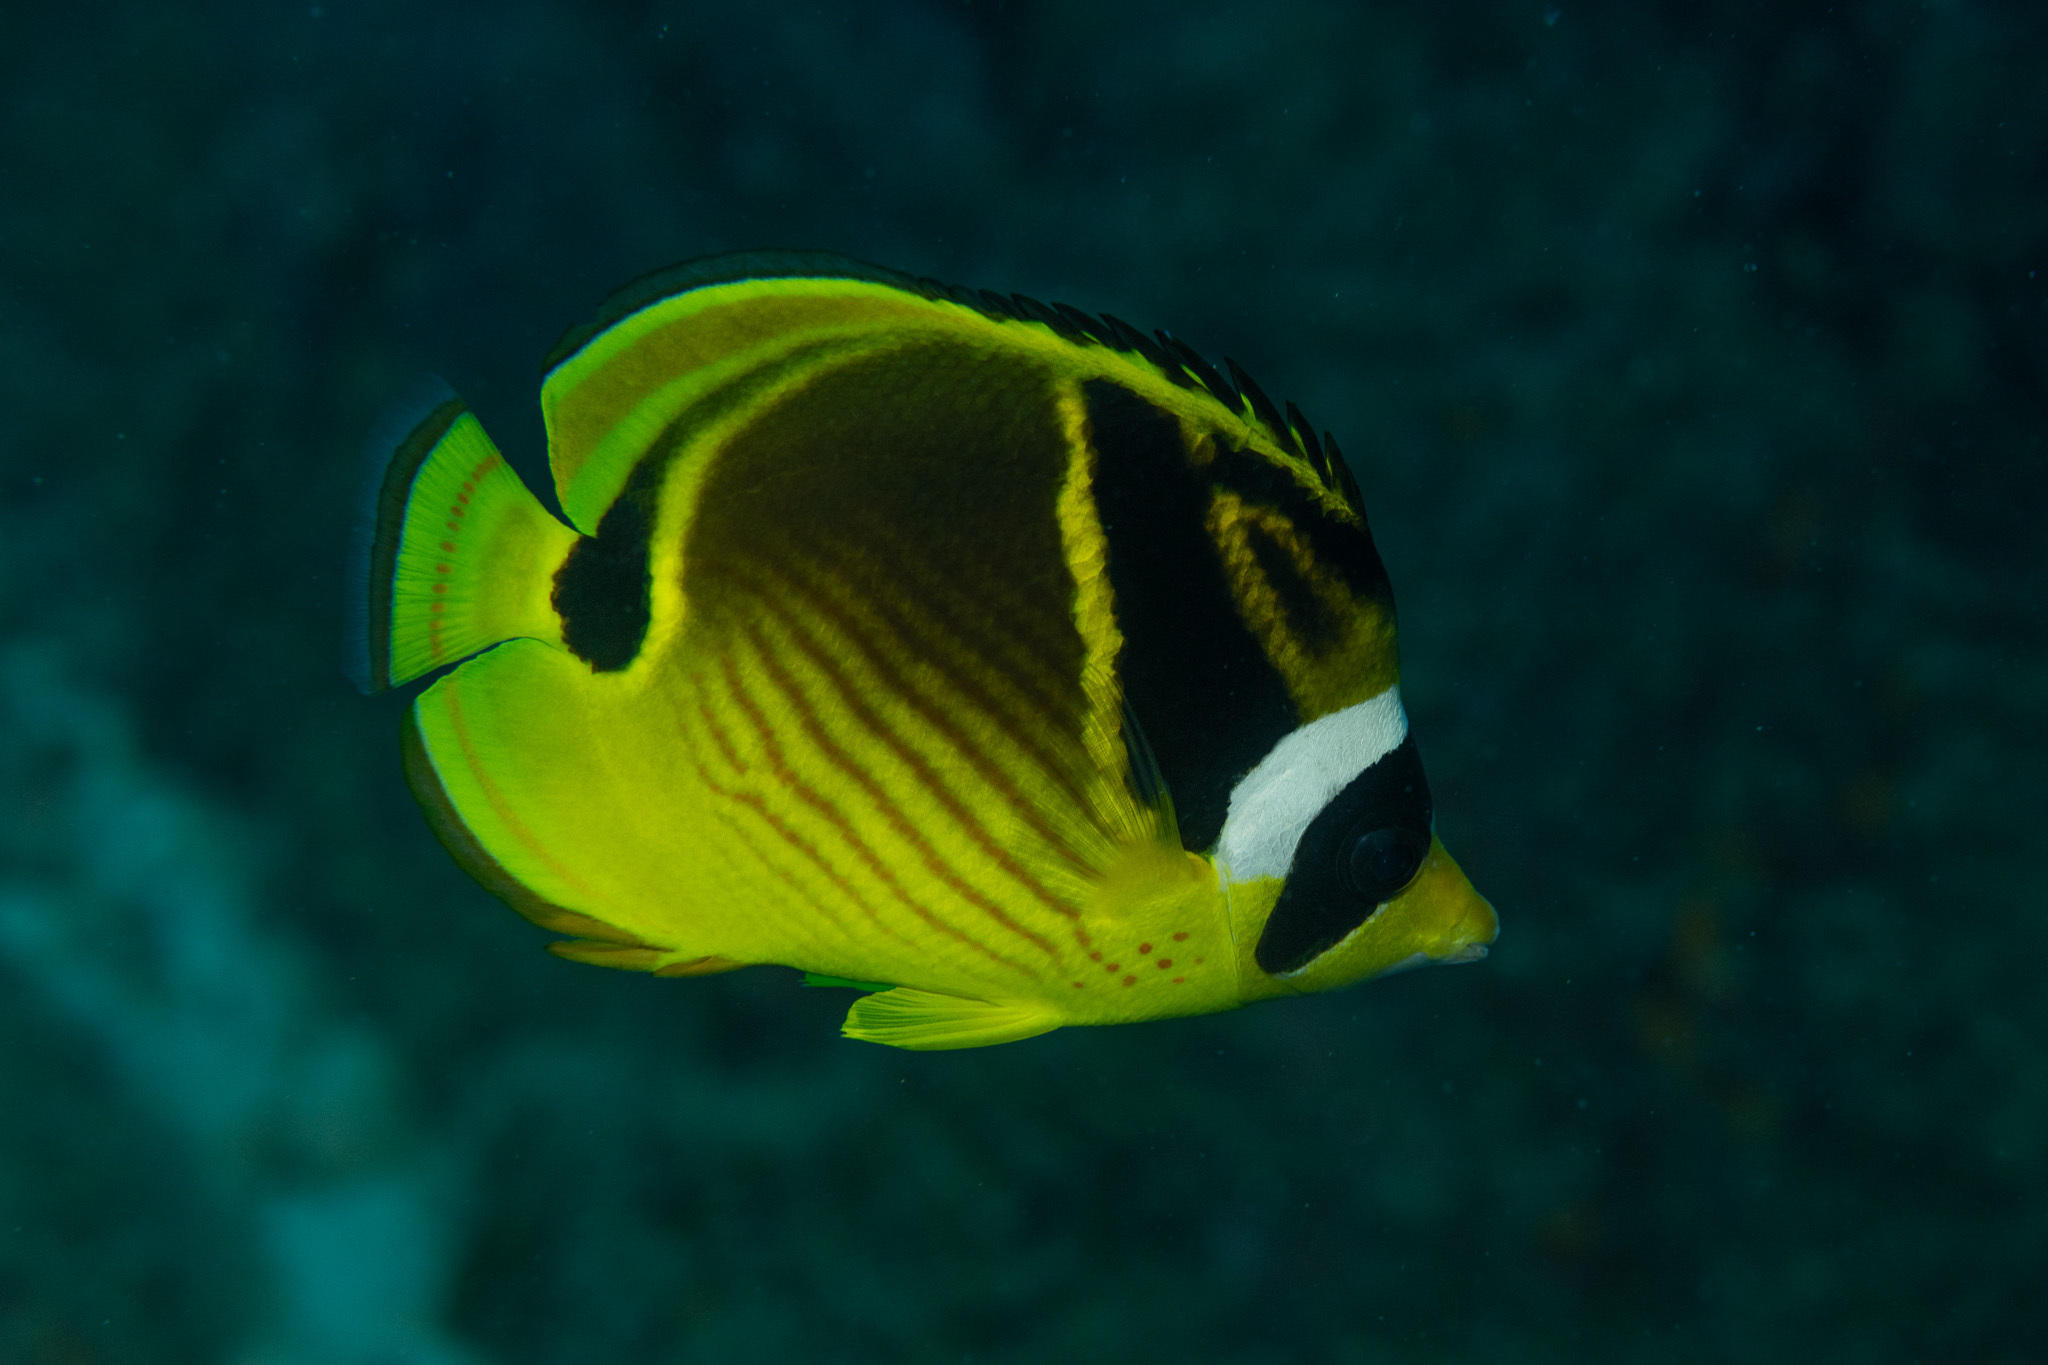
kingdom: Animalia
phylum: Chordata
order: Perciformes
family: Chaetodontidae
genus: Chaetodon
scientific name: Chaetodon lunula
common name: Raccoon butterflyfish
